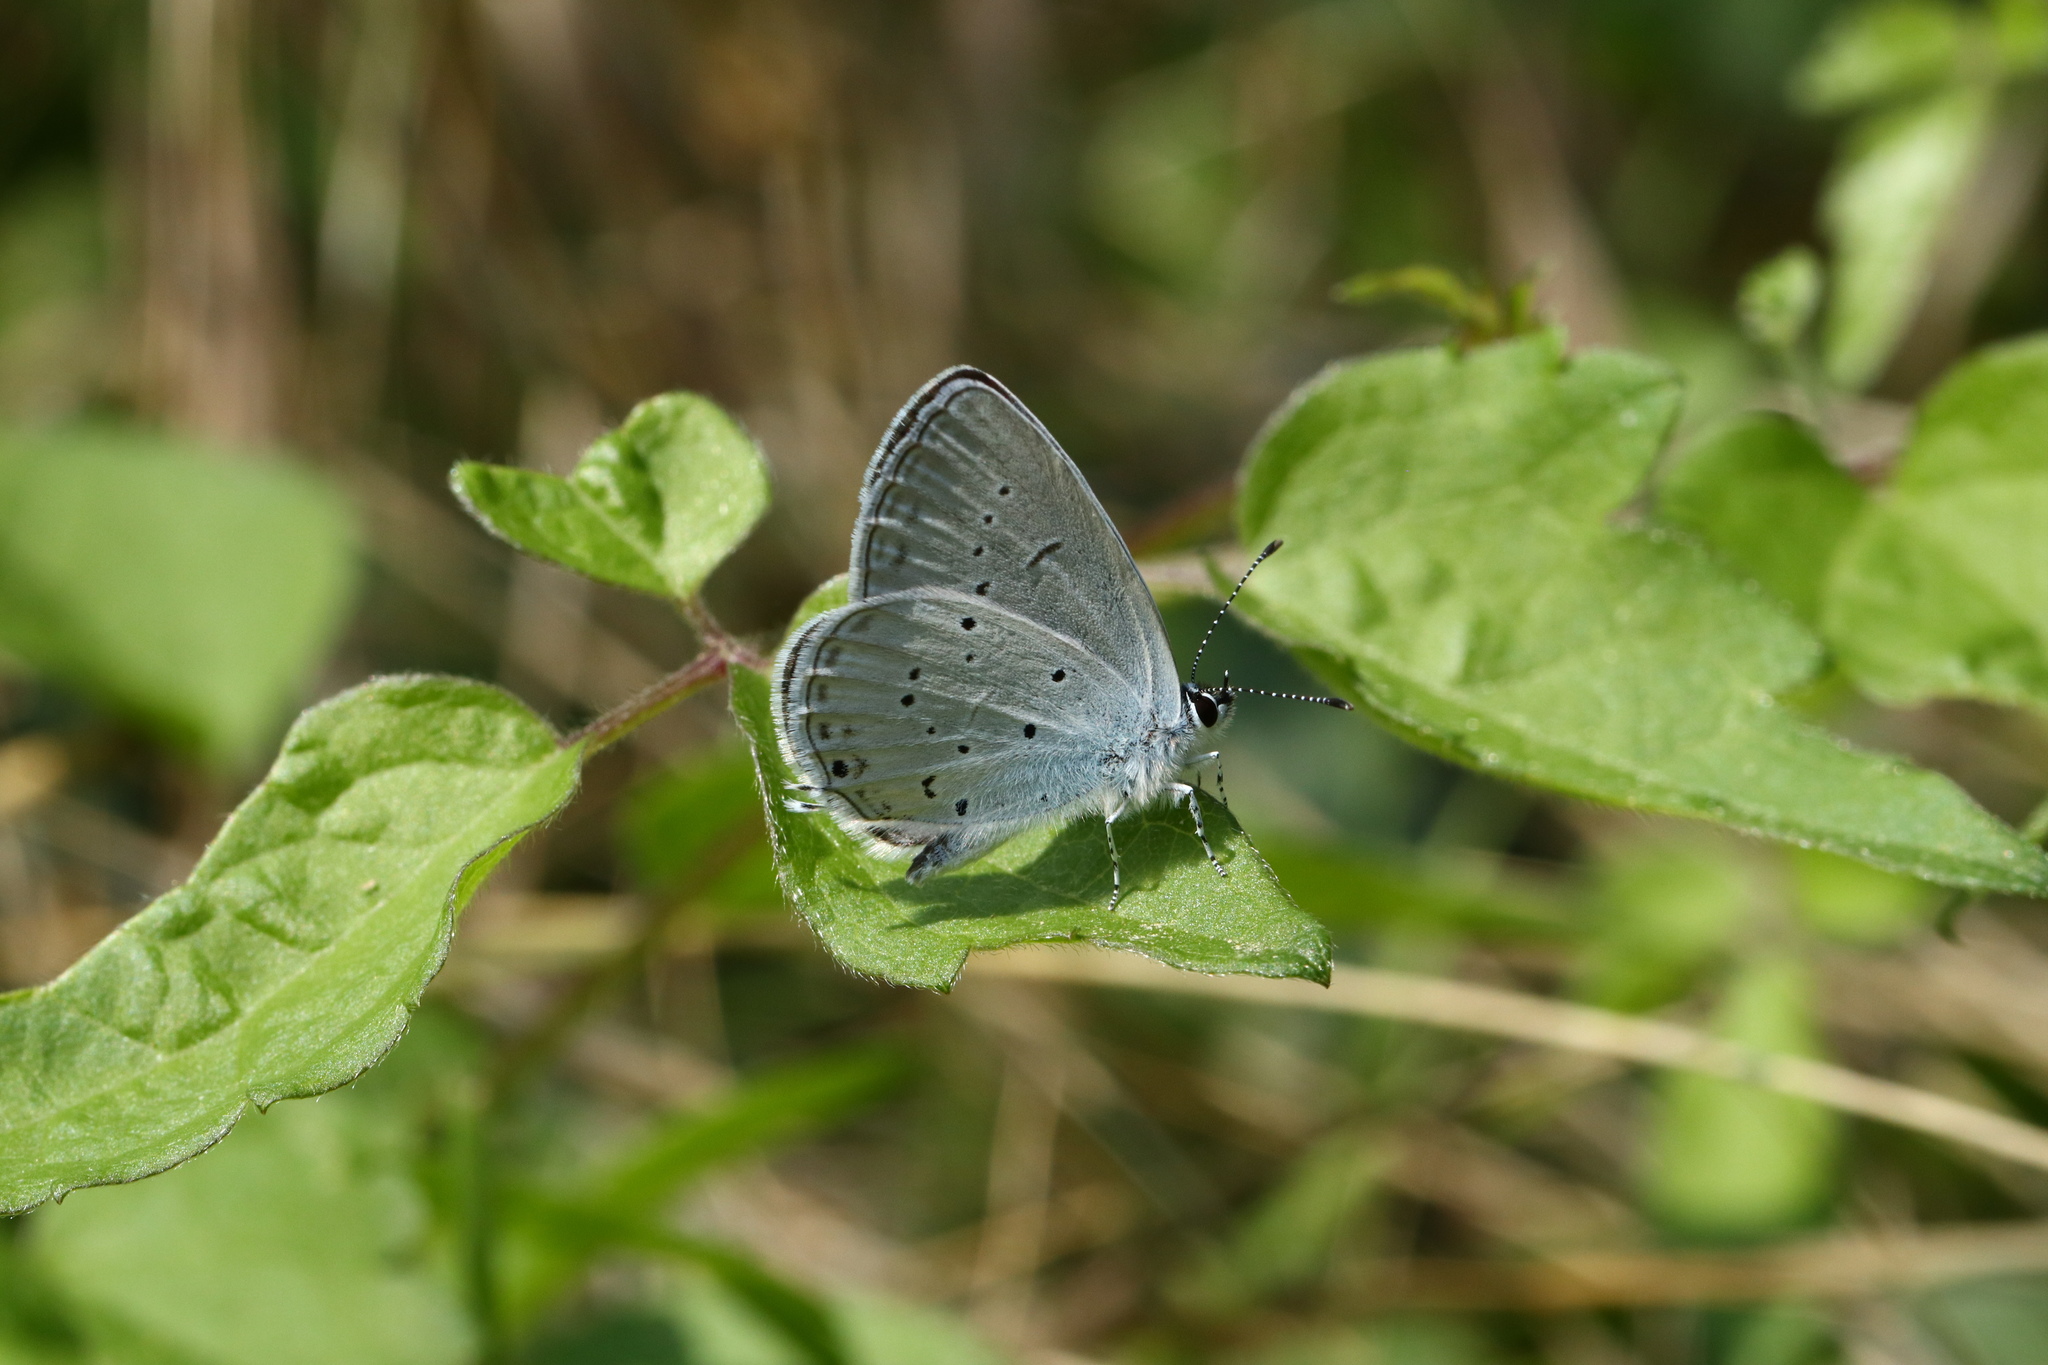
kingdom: Animalia
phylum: Arthropoda
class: Insecta
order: Lepidoptera
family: Lycaenidae
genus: Elkalyce
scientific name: Elkalyce alcetas
